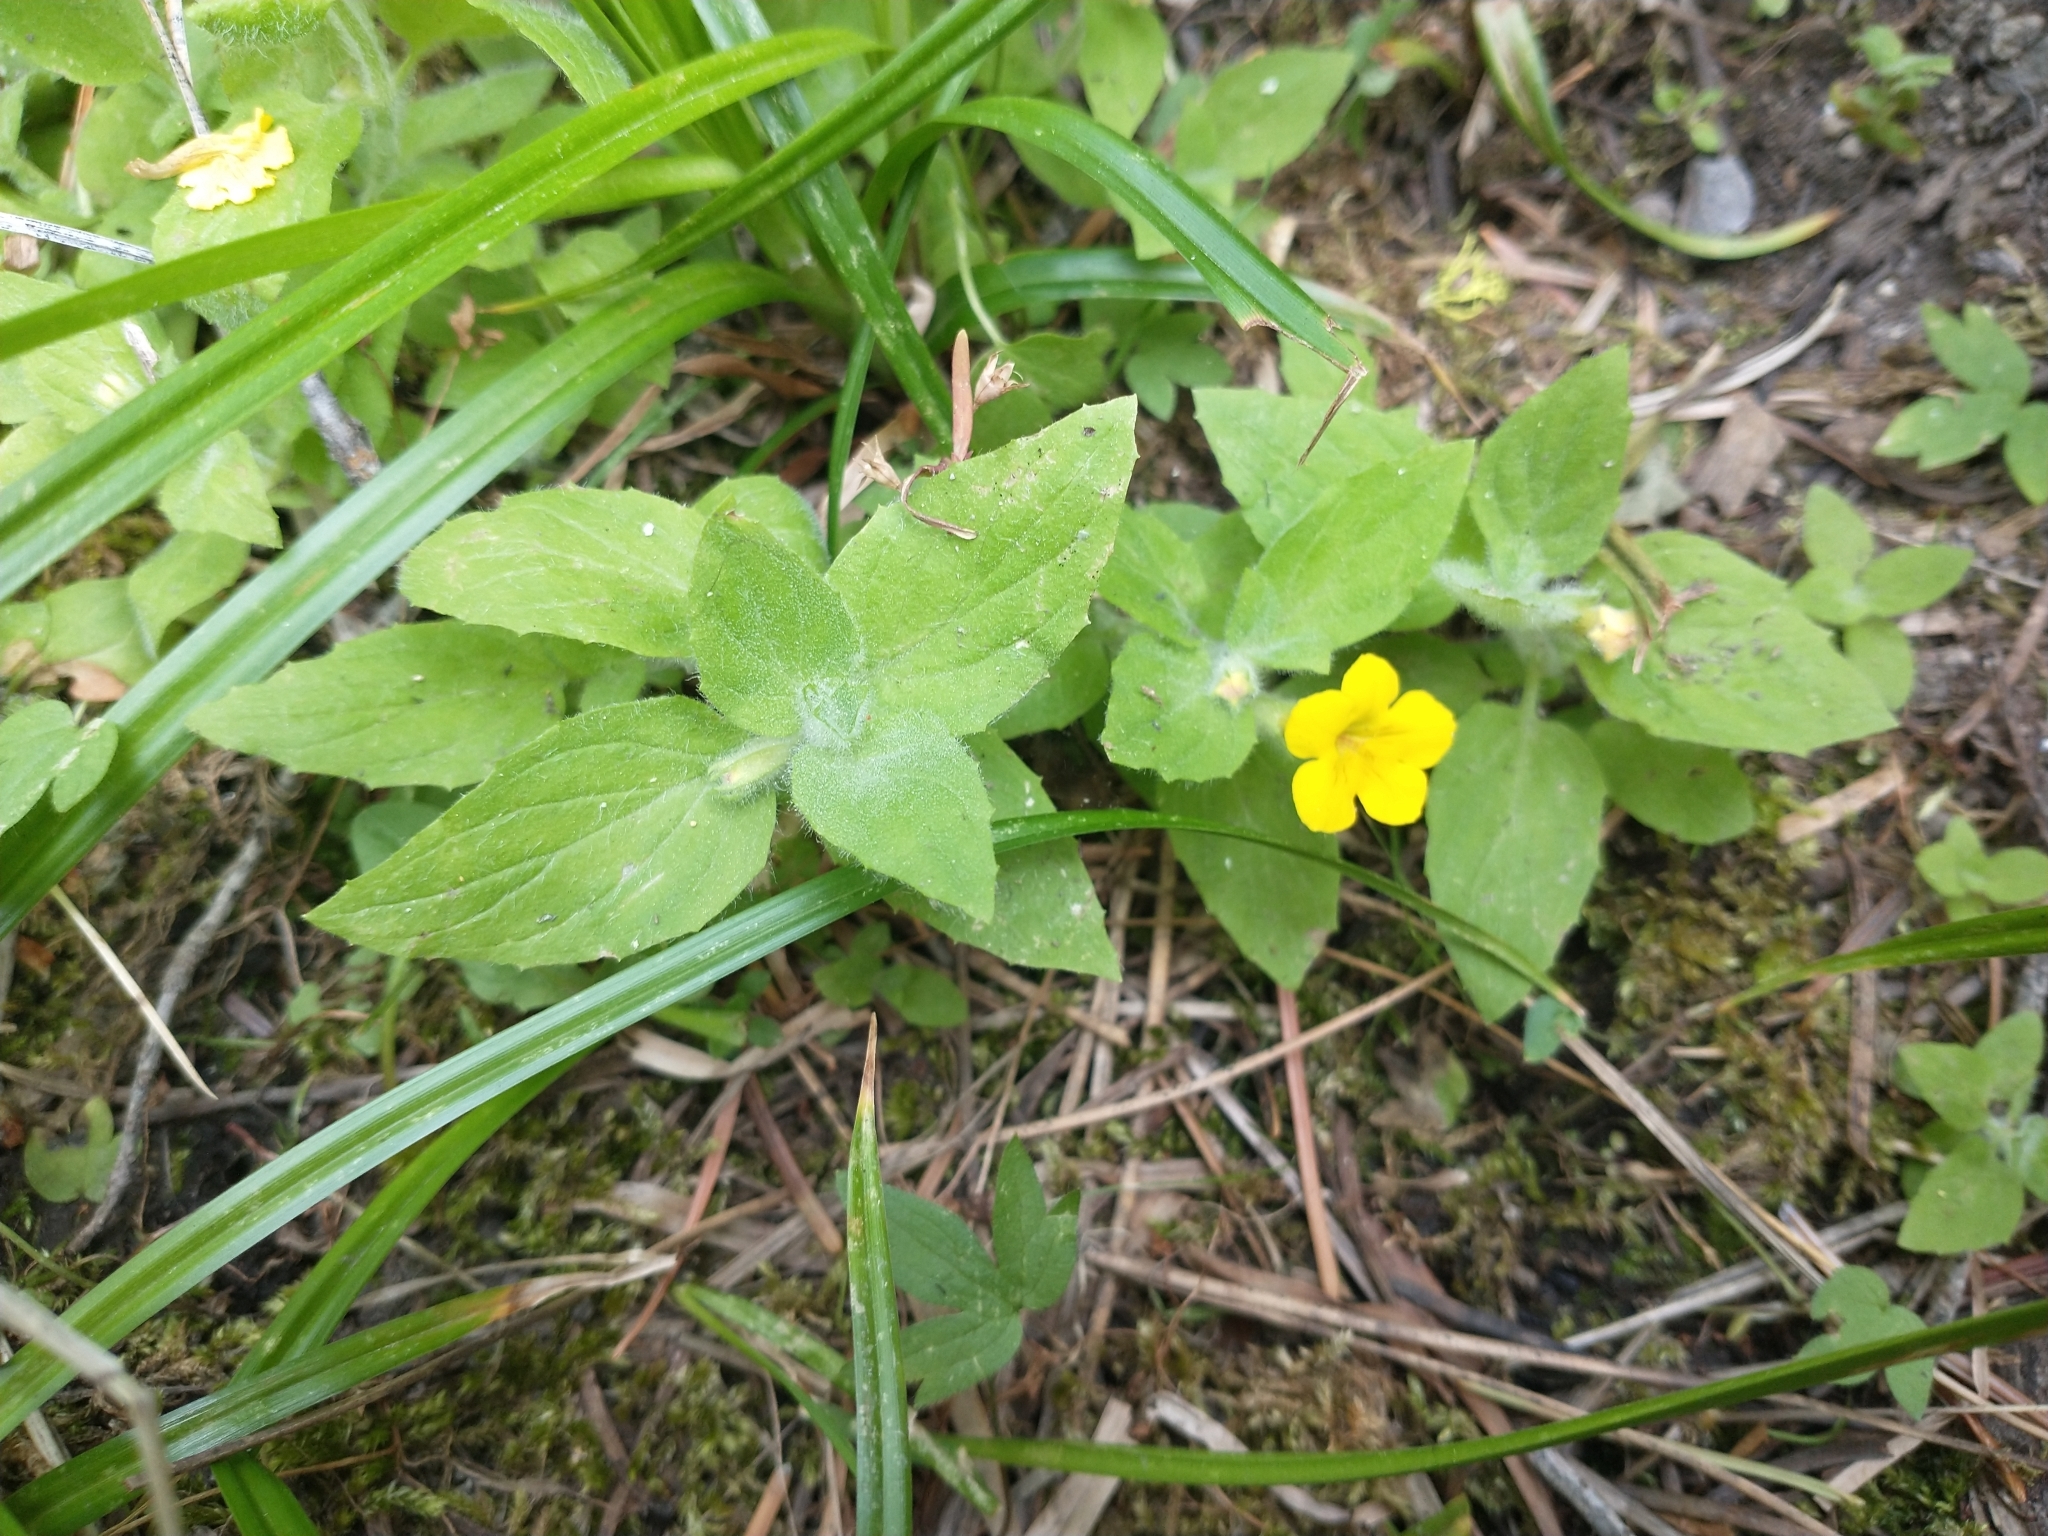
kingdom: Plantae
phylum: Tracheophyta
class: Magnoliopsida
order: Lamiales
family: Phrymaceae
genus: Erythranthe
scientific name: Erythranthe moschata
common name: Muskflower
